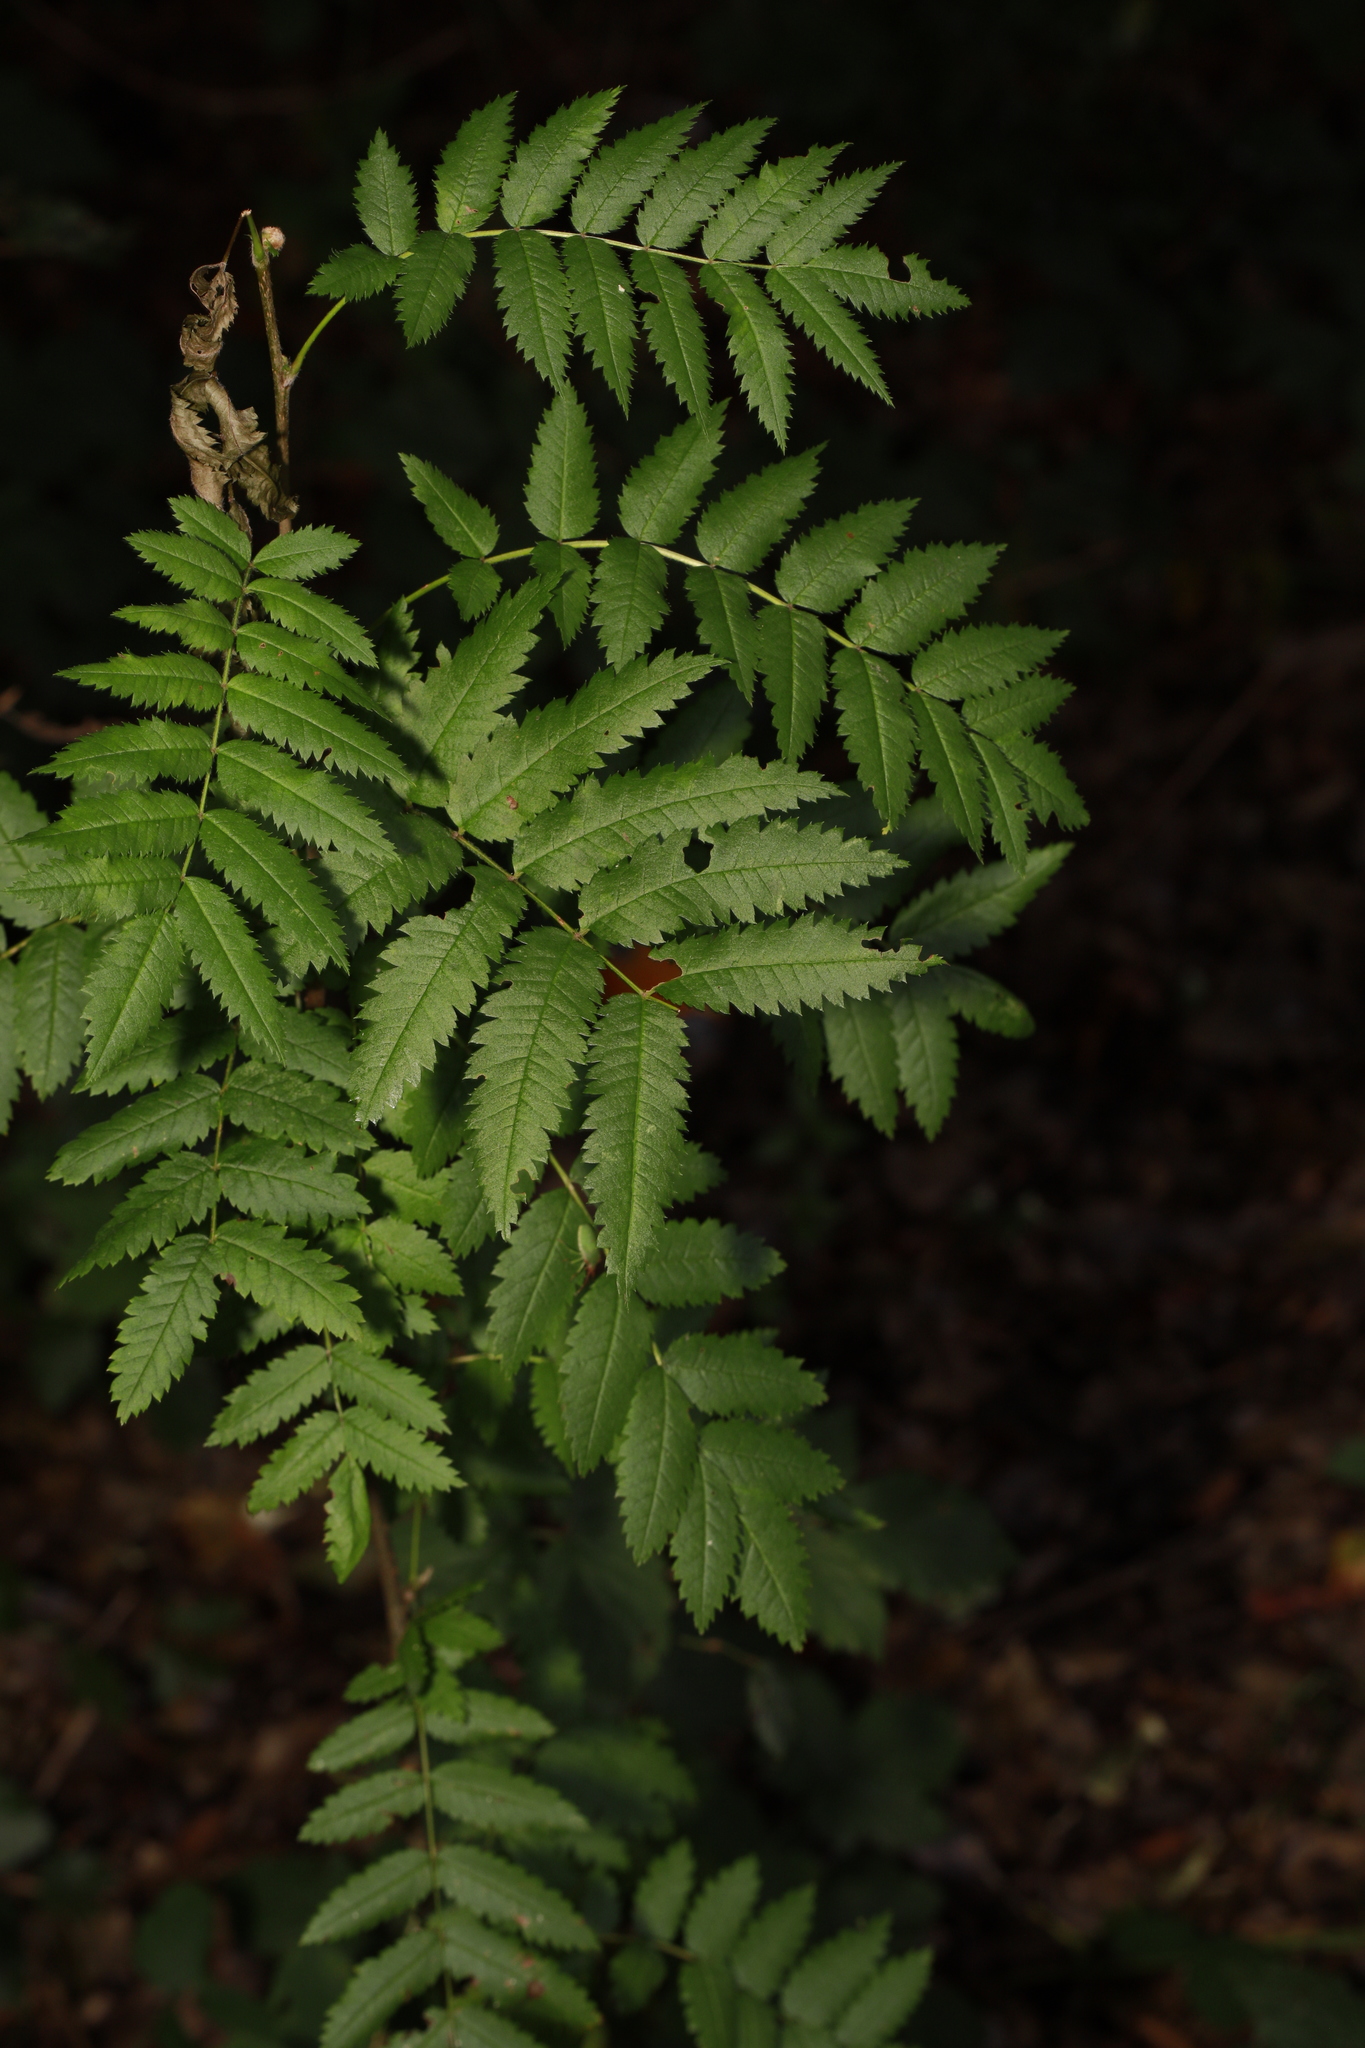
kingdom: Plantae
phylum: Tracheophyta
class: Magnoliopsida
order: Rosales
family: Rosaceae
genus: Sorbus
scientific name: Sorbus aucuparia
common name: Rowan
